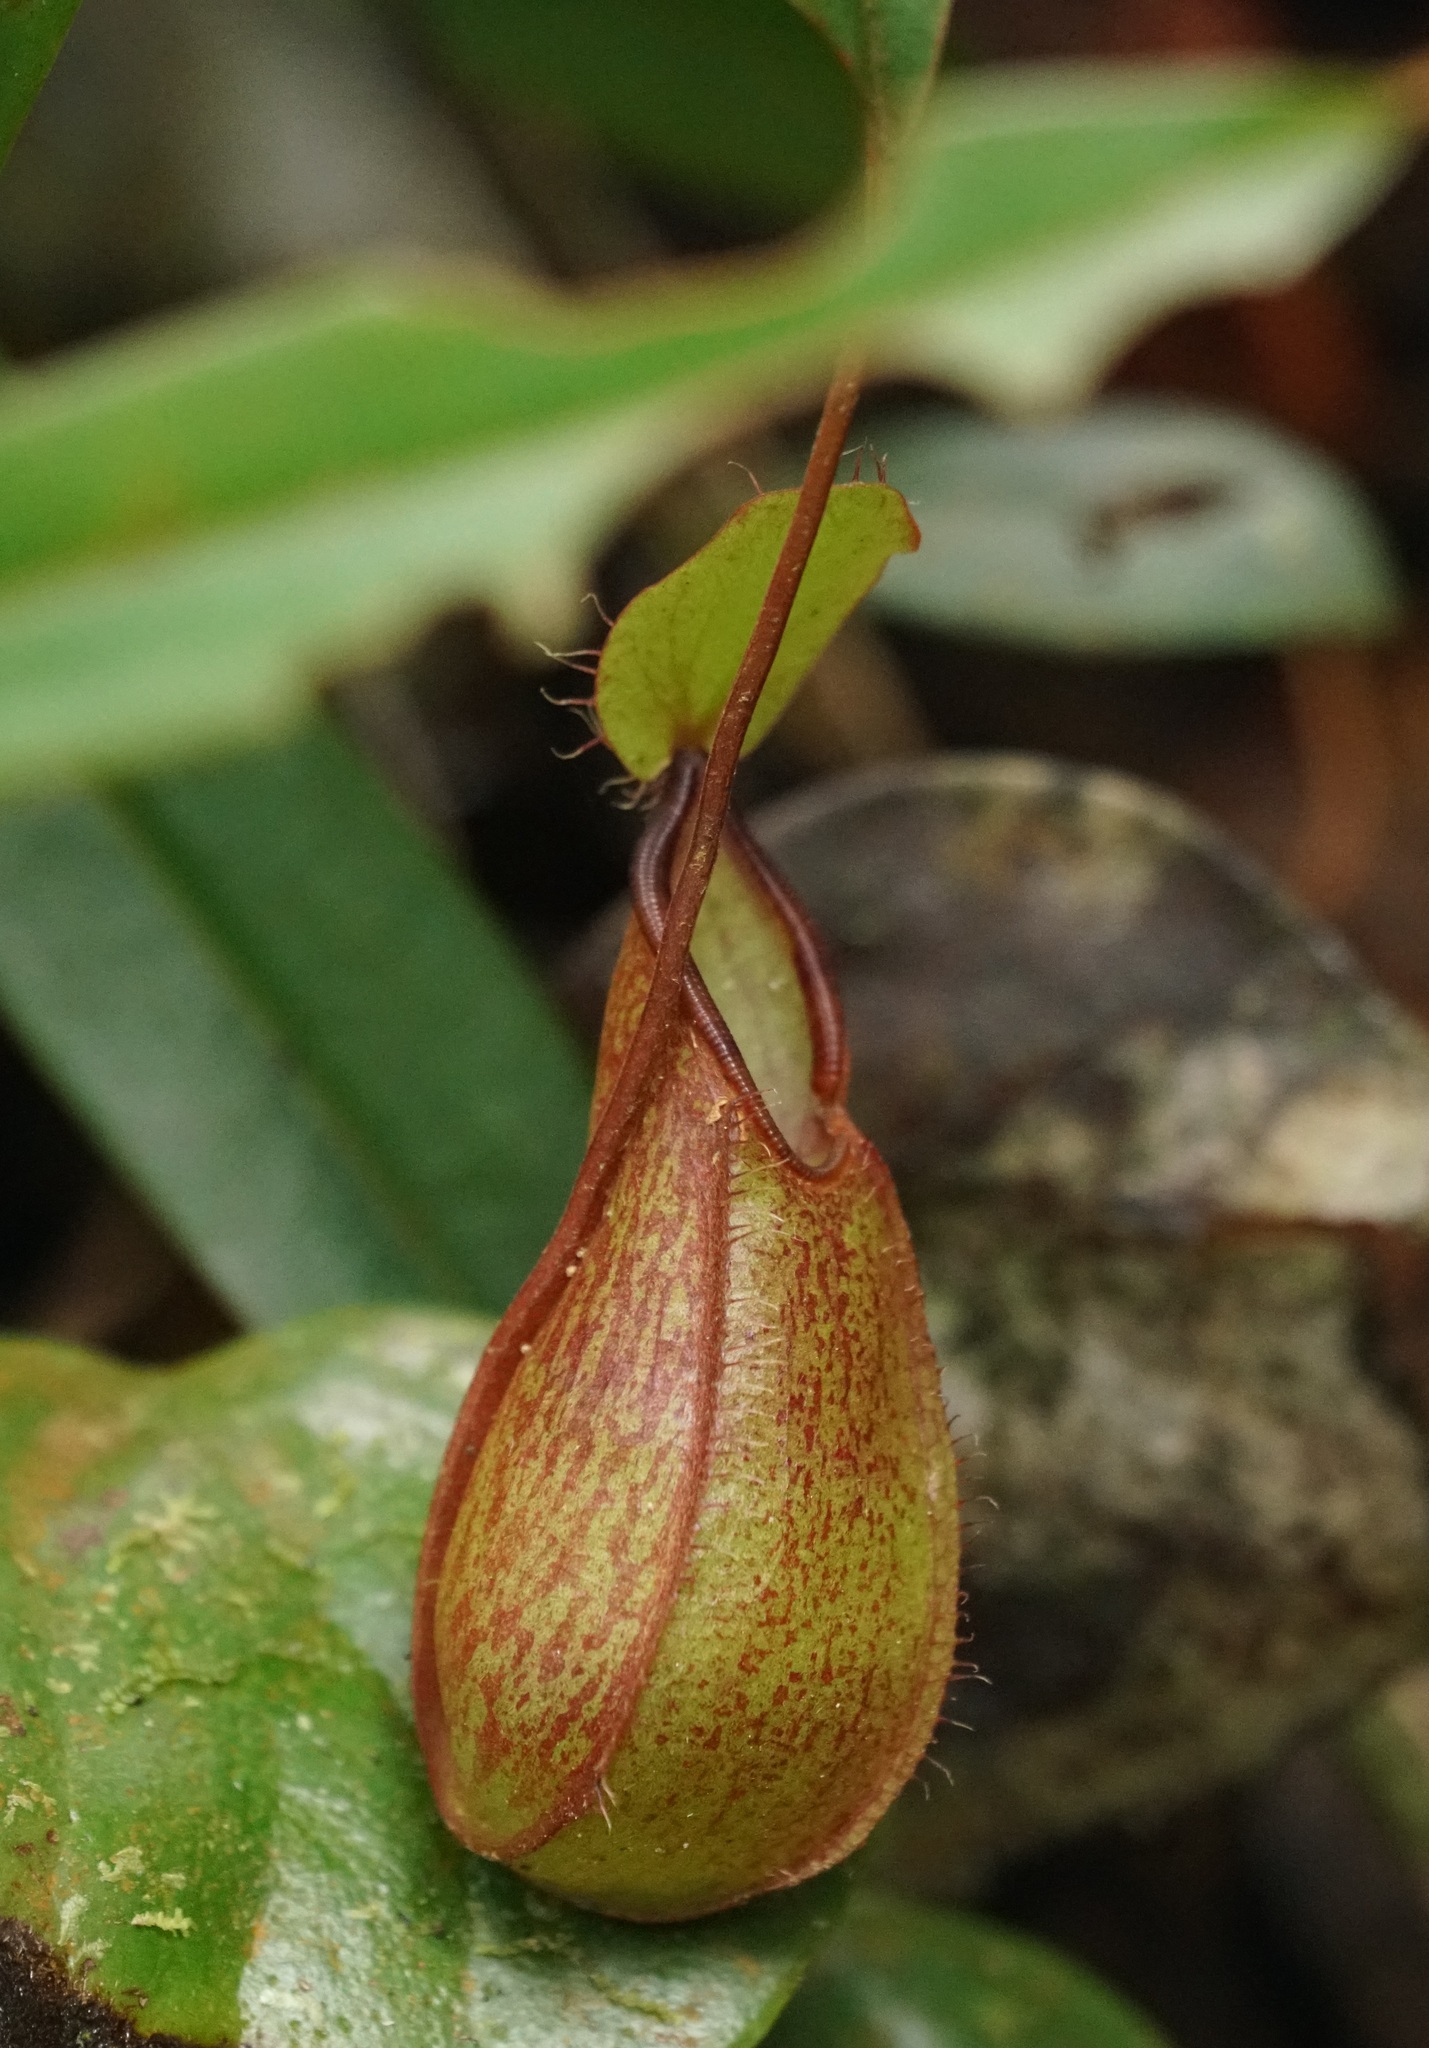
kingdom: Plantae
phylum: Tracheophyta
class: Magnoliopsida
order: Caryophyllales
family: Nepenthaceae
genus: Nepenthes
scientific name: Nepenthes tentaculata
